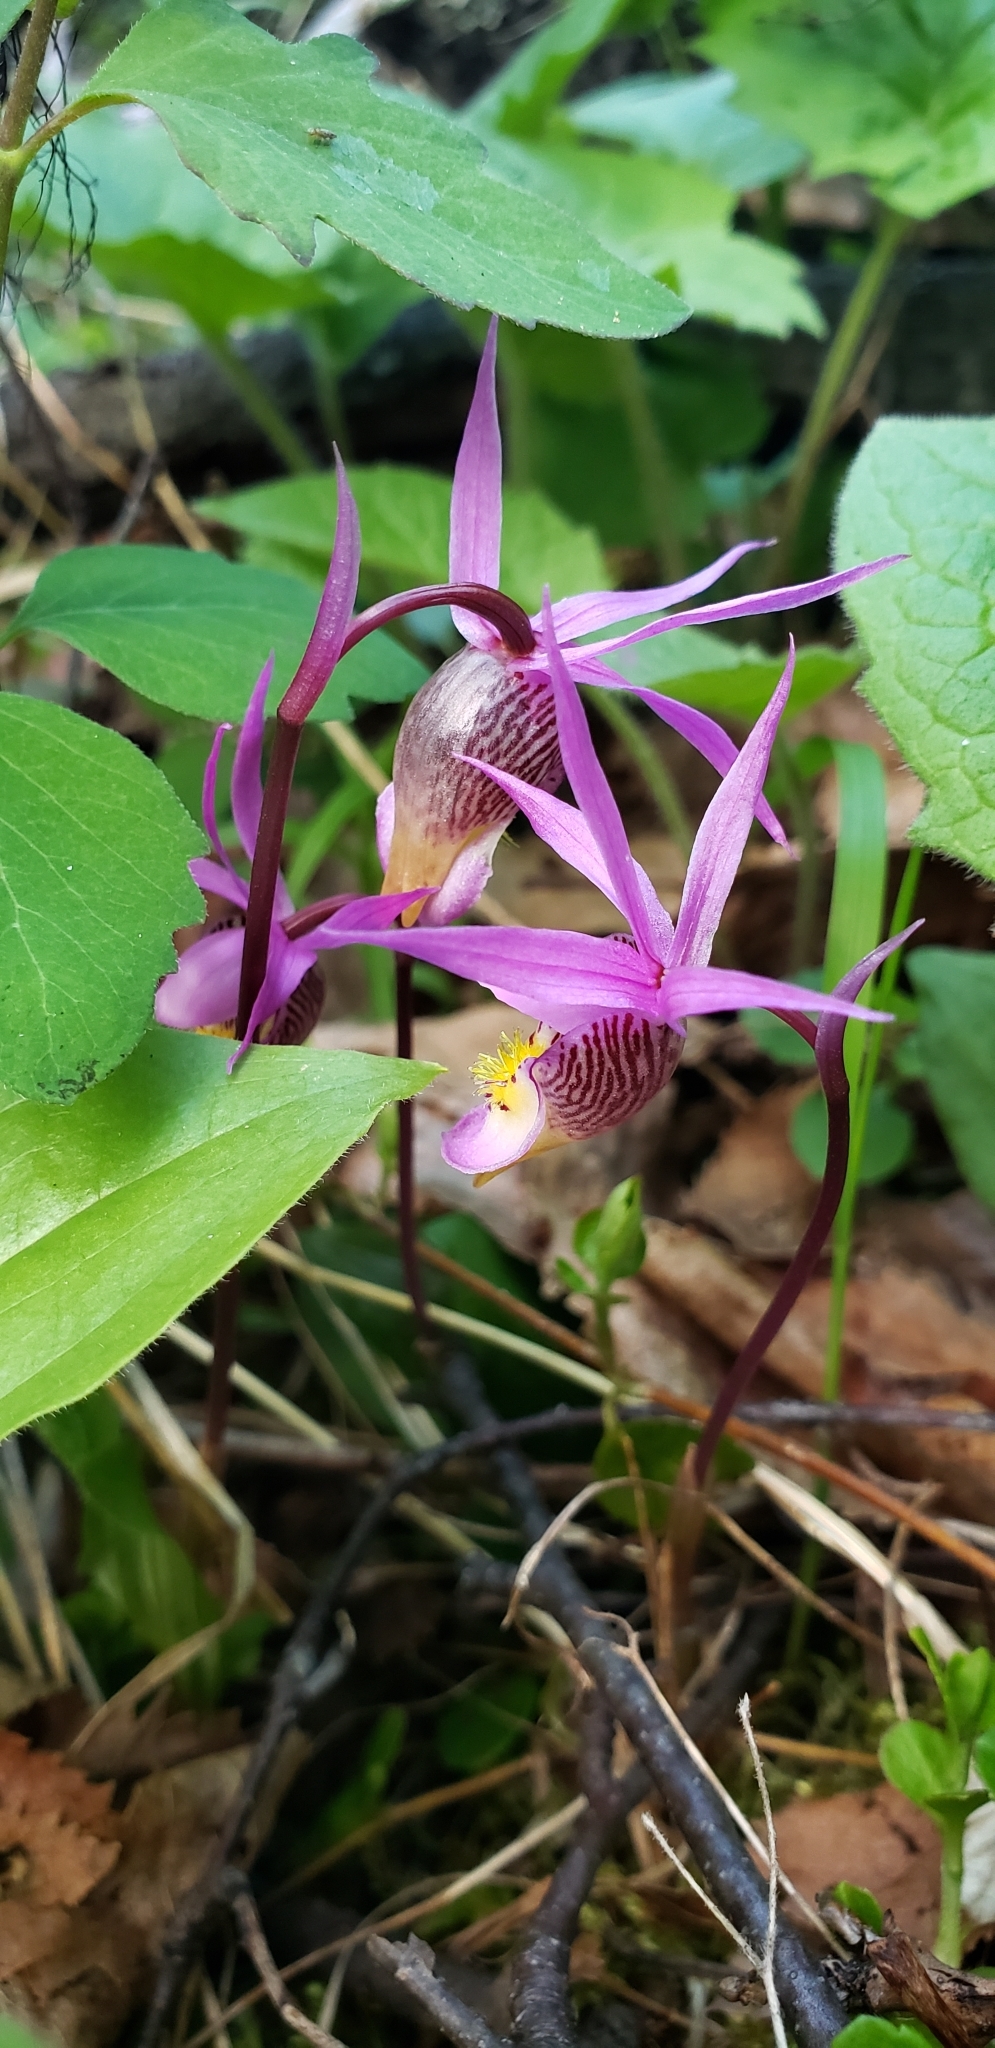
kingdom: Plantae
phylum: Tracheophyta
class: Liliopsida
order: Asparagales
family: Orchidaceae
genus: Calypso
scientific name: Calypso bulbosa
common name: Calypso
